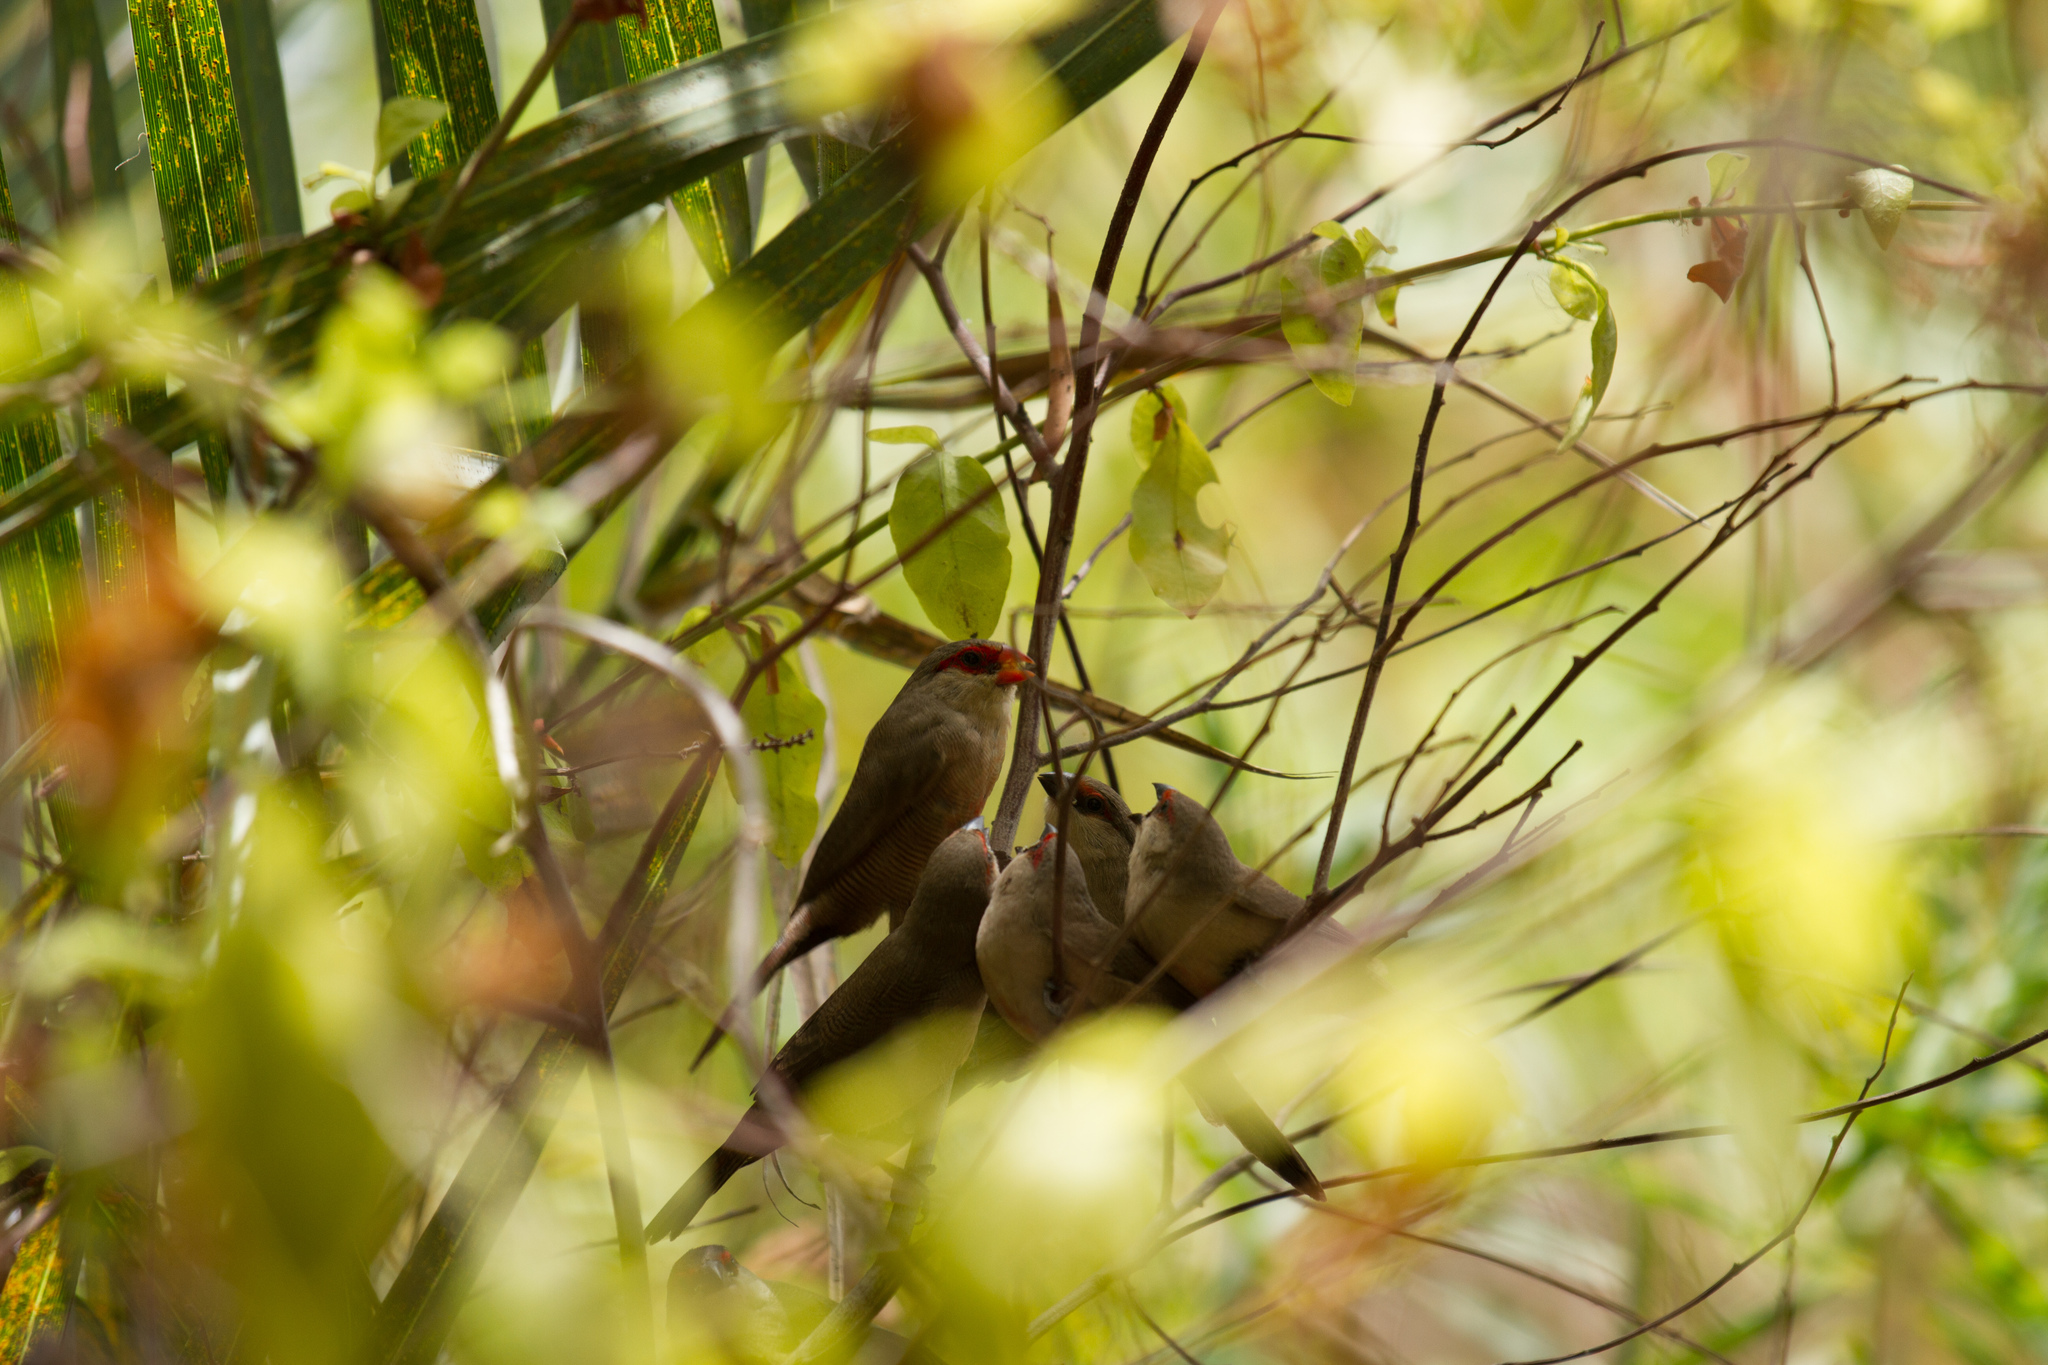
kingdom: Animalia
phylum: Chordata
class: Aves
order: Passeriformes
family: Estrildidae
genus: Estrilda
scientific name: Estrilda astrild
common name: Common waxbill
